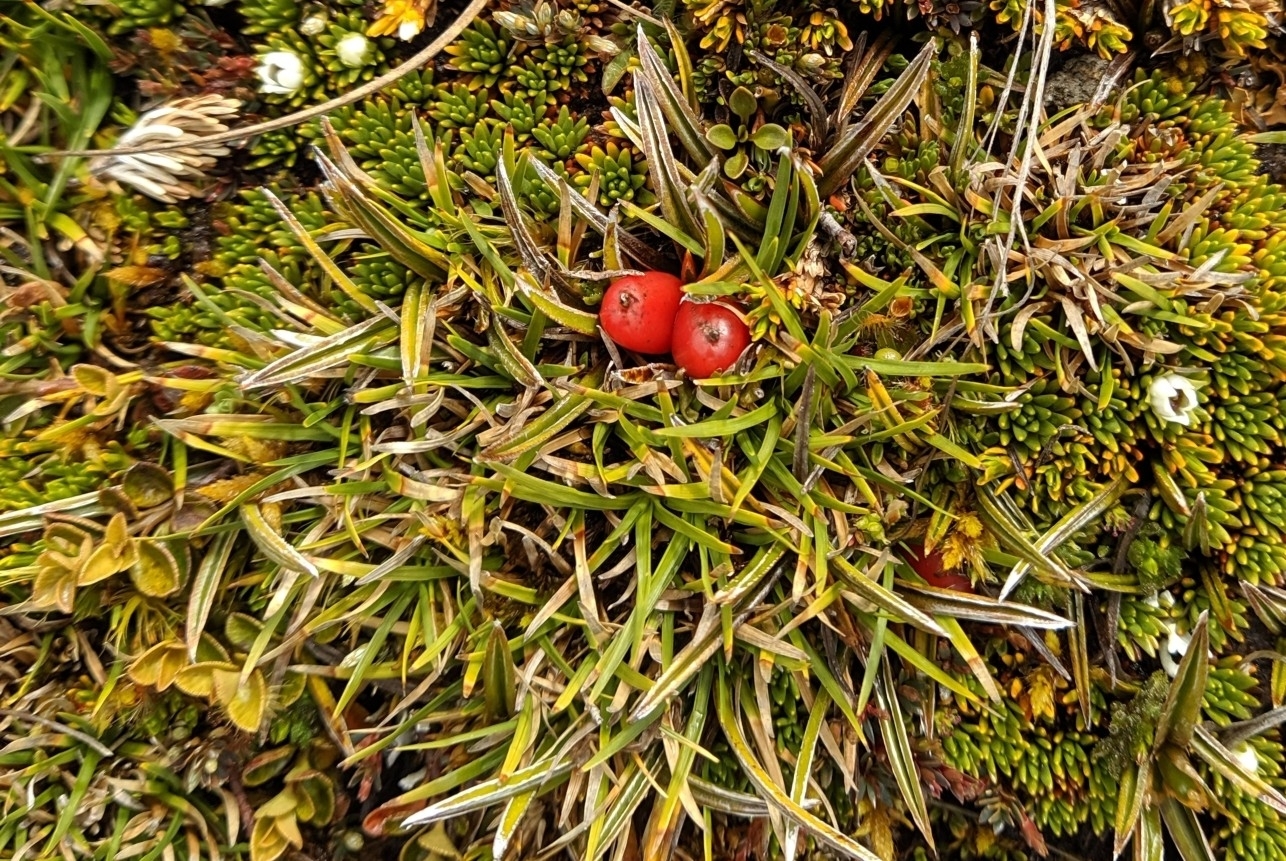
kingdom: Plantae
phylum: Tracheophyta
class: Liliopsida
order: Asparagales
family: Asteliaceae
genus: Astelia
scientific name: Astelia linearis
